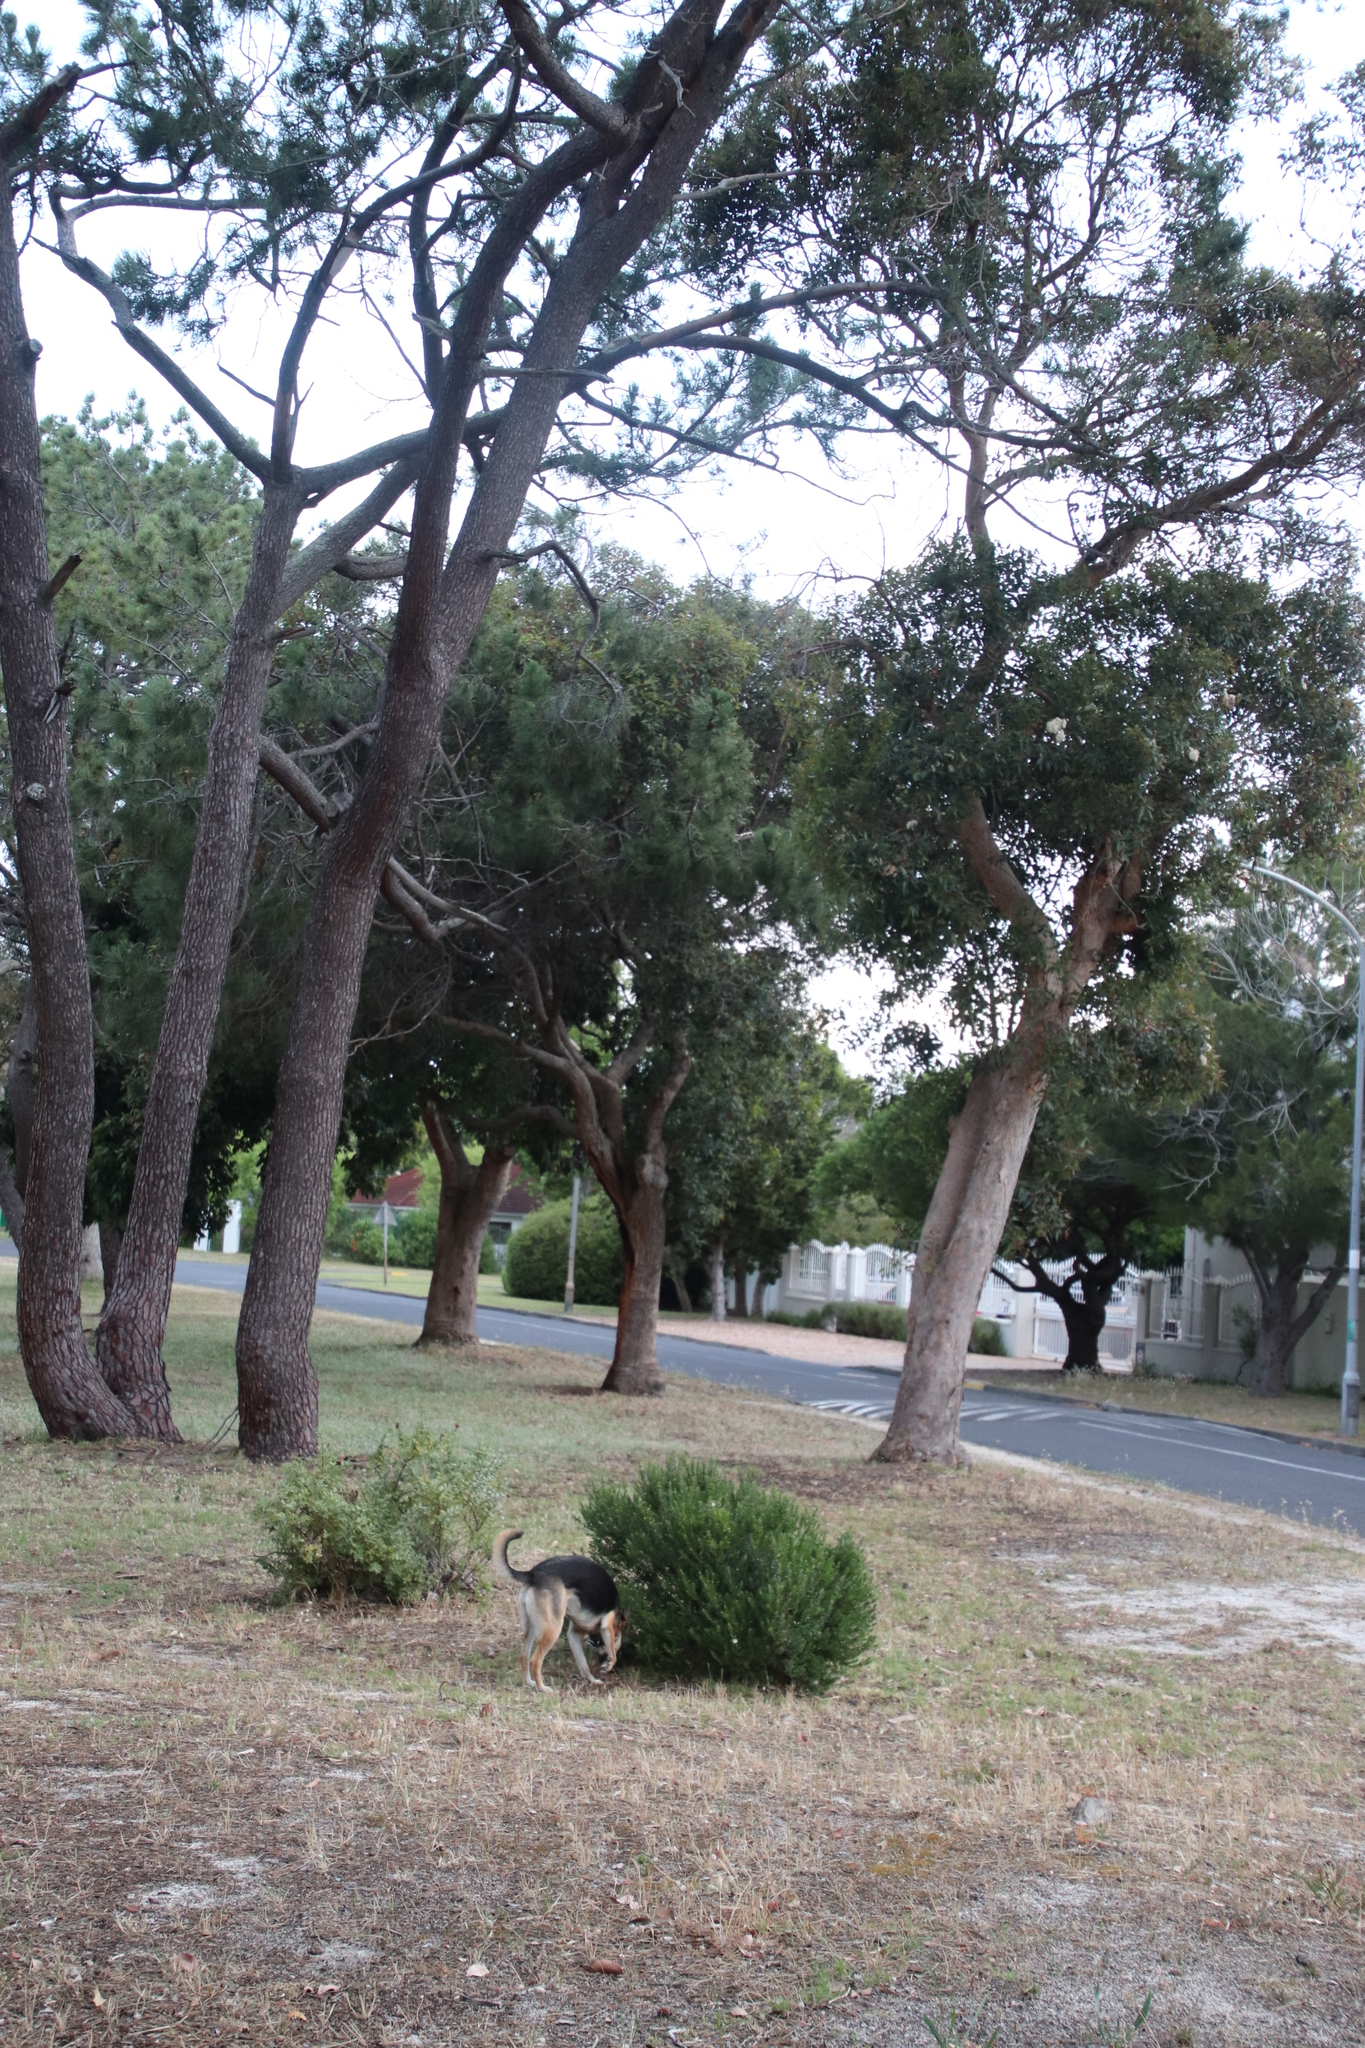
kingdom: Plantae
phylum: Tracheophyta
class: Magnoliopsida
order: Myrtales
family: Myrtaceae
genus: Eucalyptus
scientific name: Eucalyptus gomphocephala
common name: Tuart
